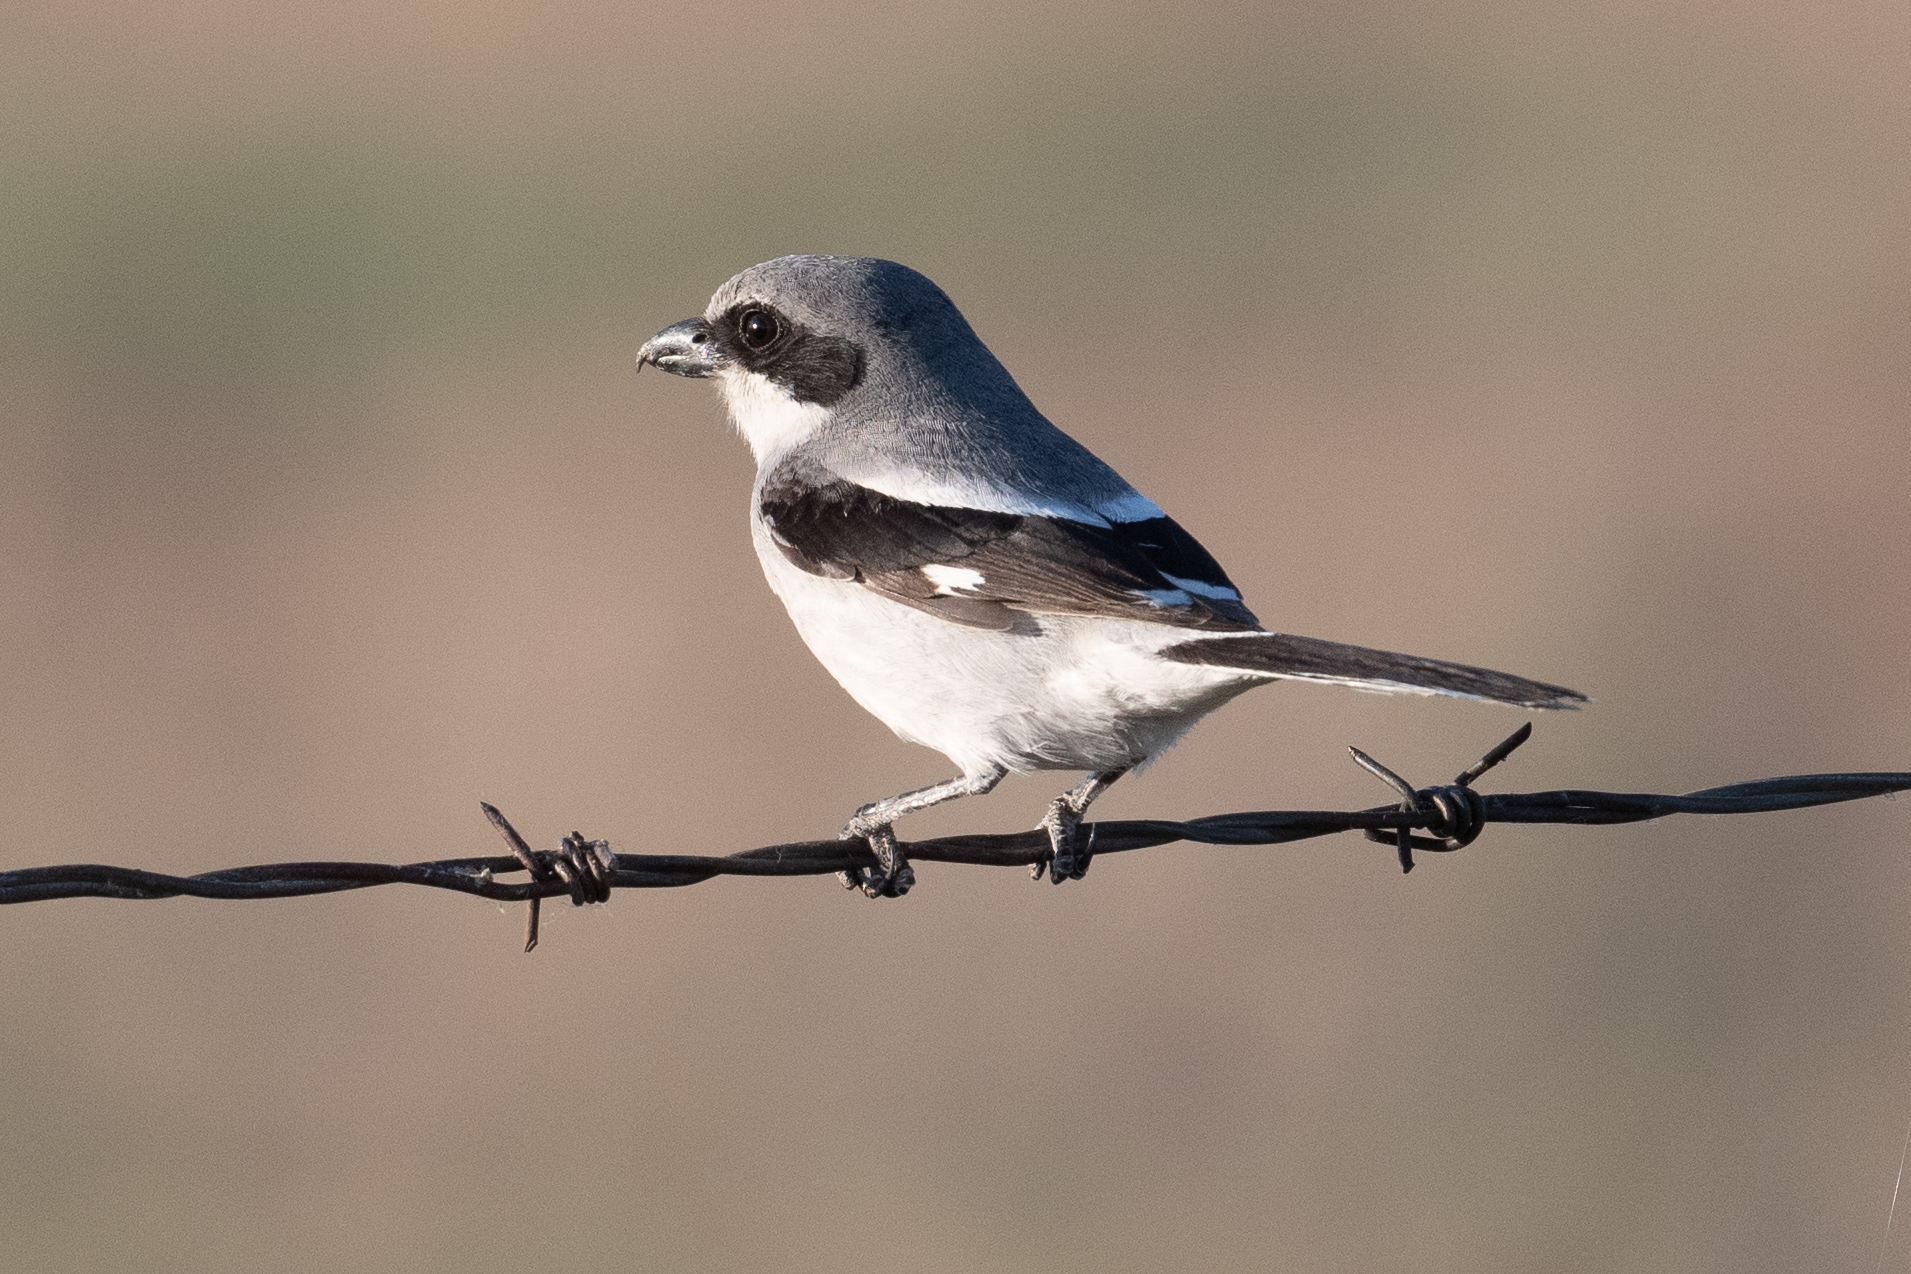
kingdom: Animalia
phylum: Chordata
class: Aves
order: Passeriformes
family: Laniidae
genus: Lanius
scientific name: Lanius ludovicianus
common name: Loggerhead shrike
